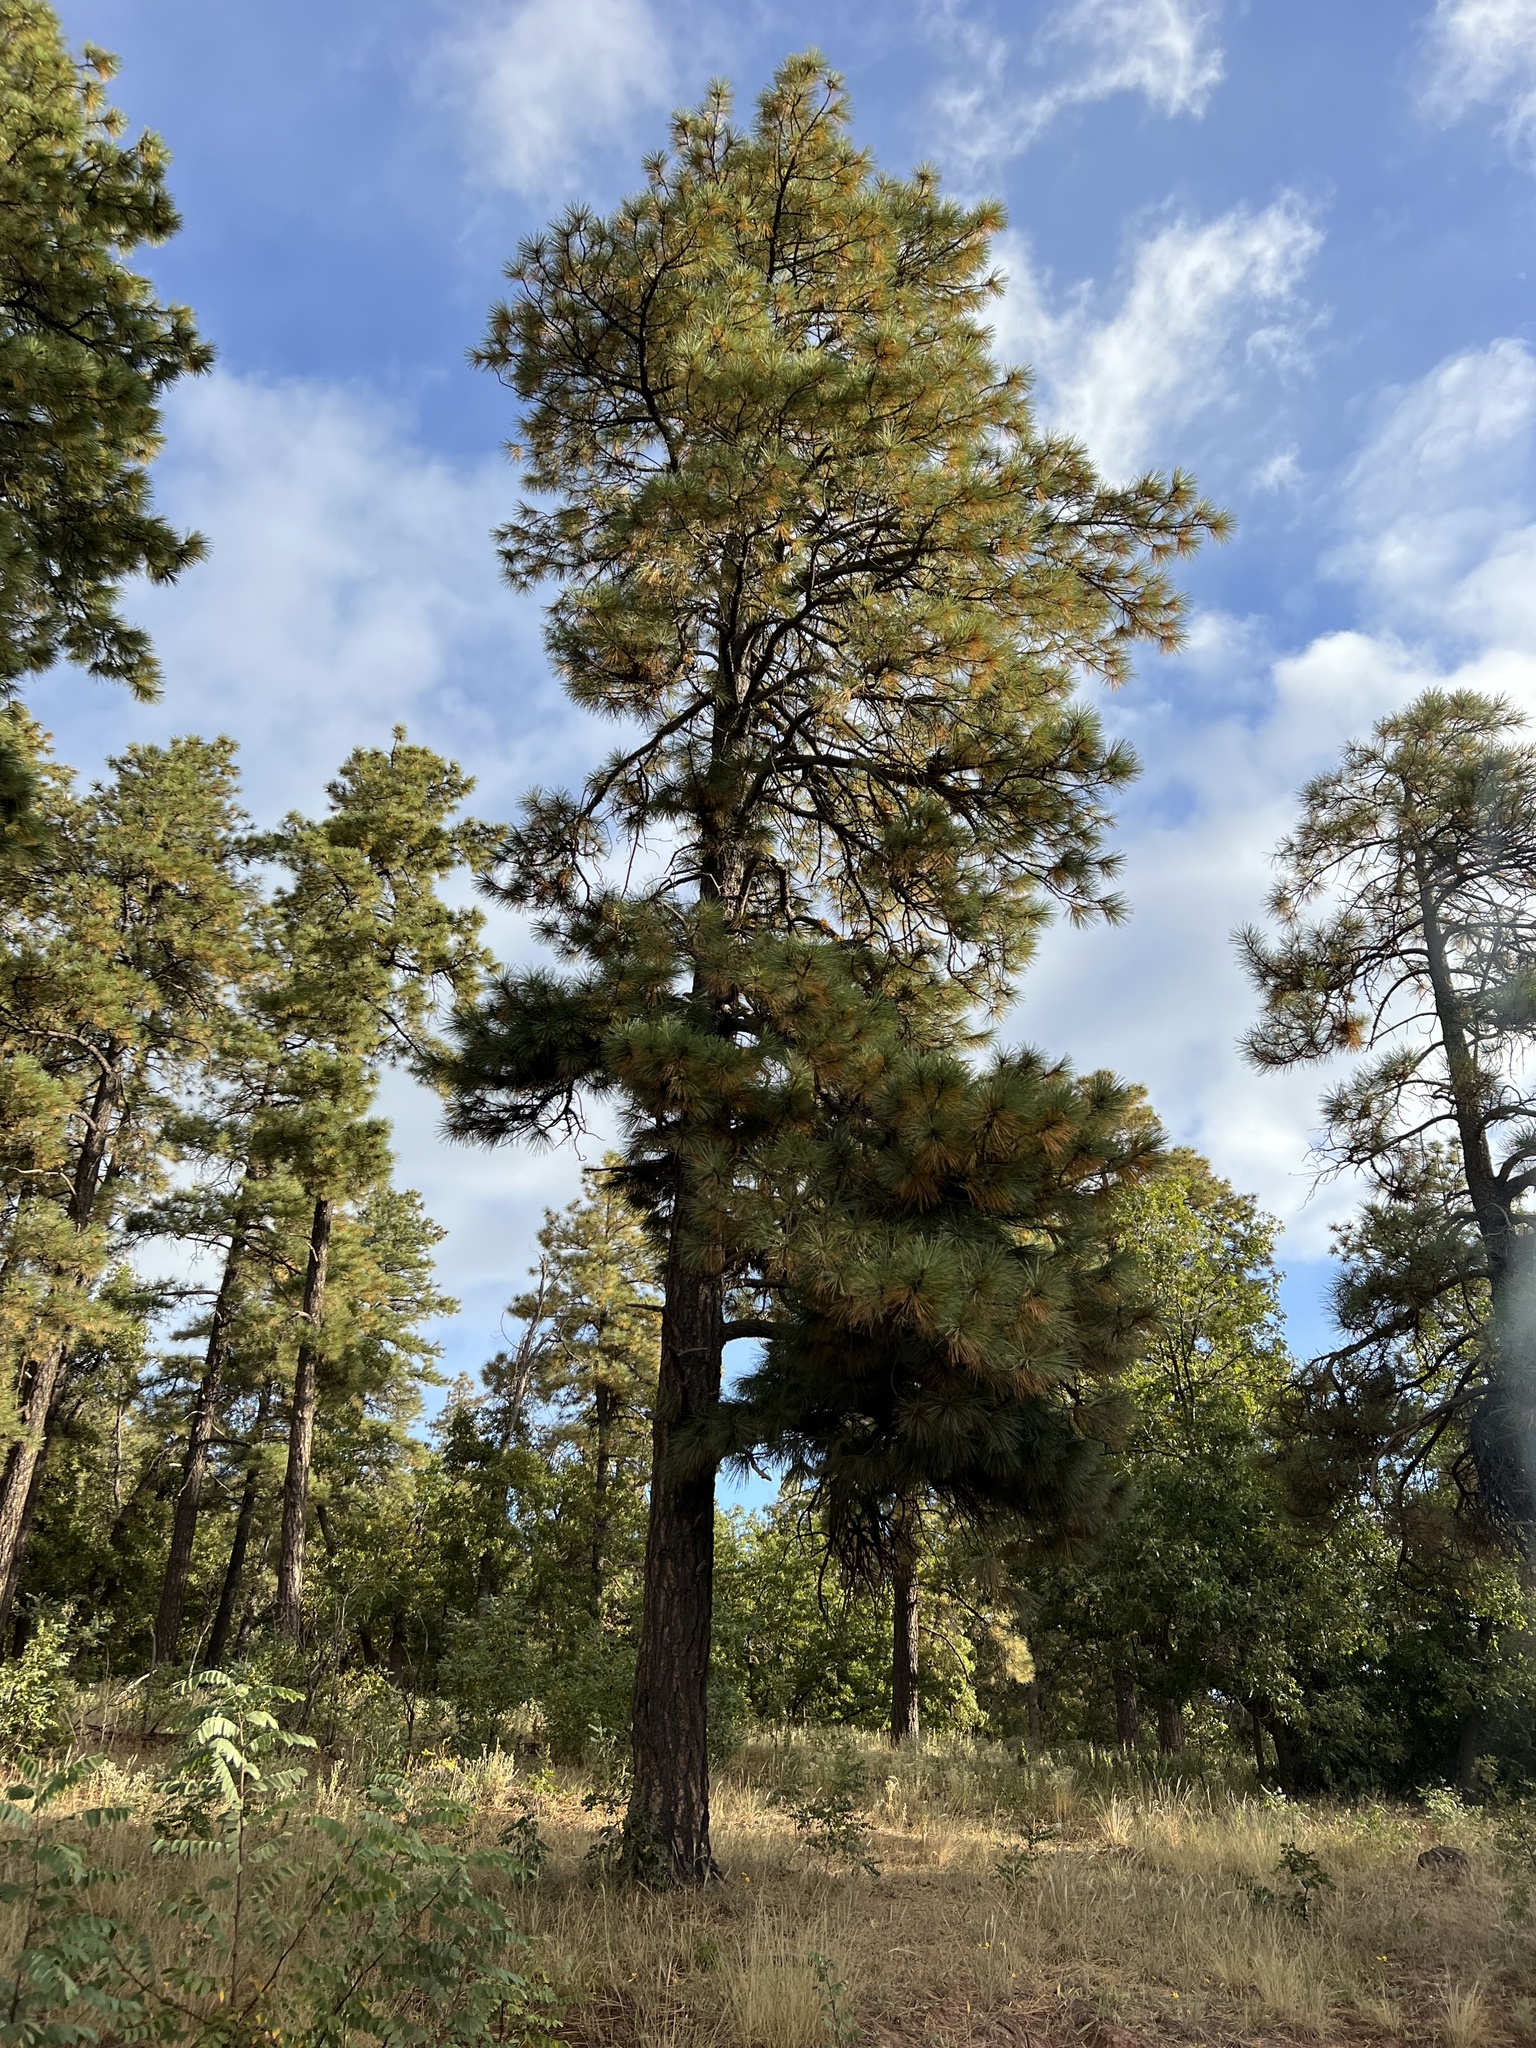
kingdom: Plantae
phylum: Tracheophyta
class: Pinopsida
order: Pinales
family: Pinaceae
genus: Pinus
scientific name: Pinus ponderosa
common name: Western yellow-pine
